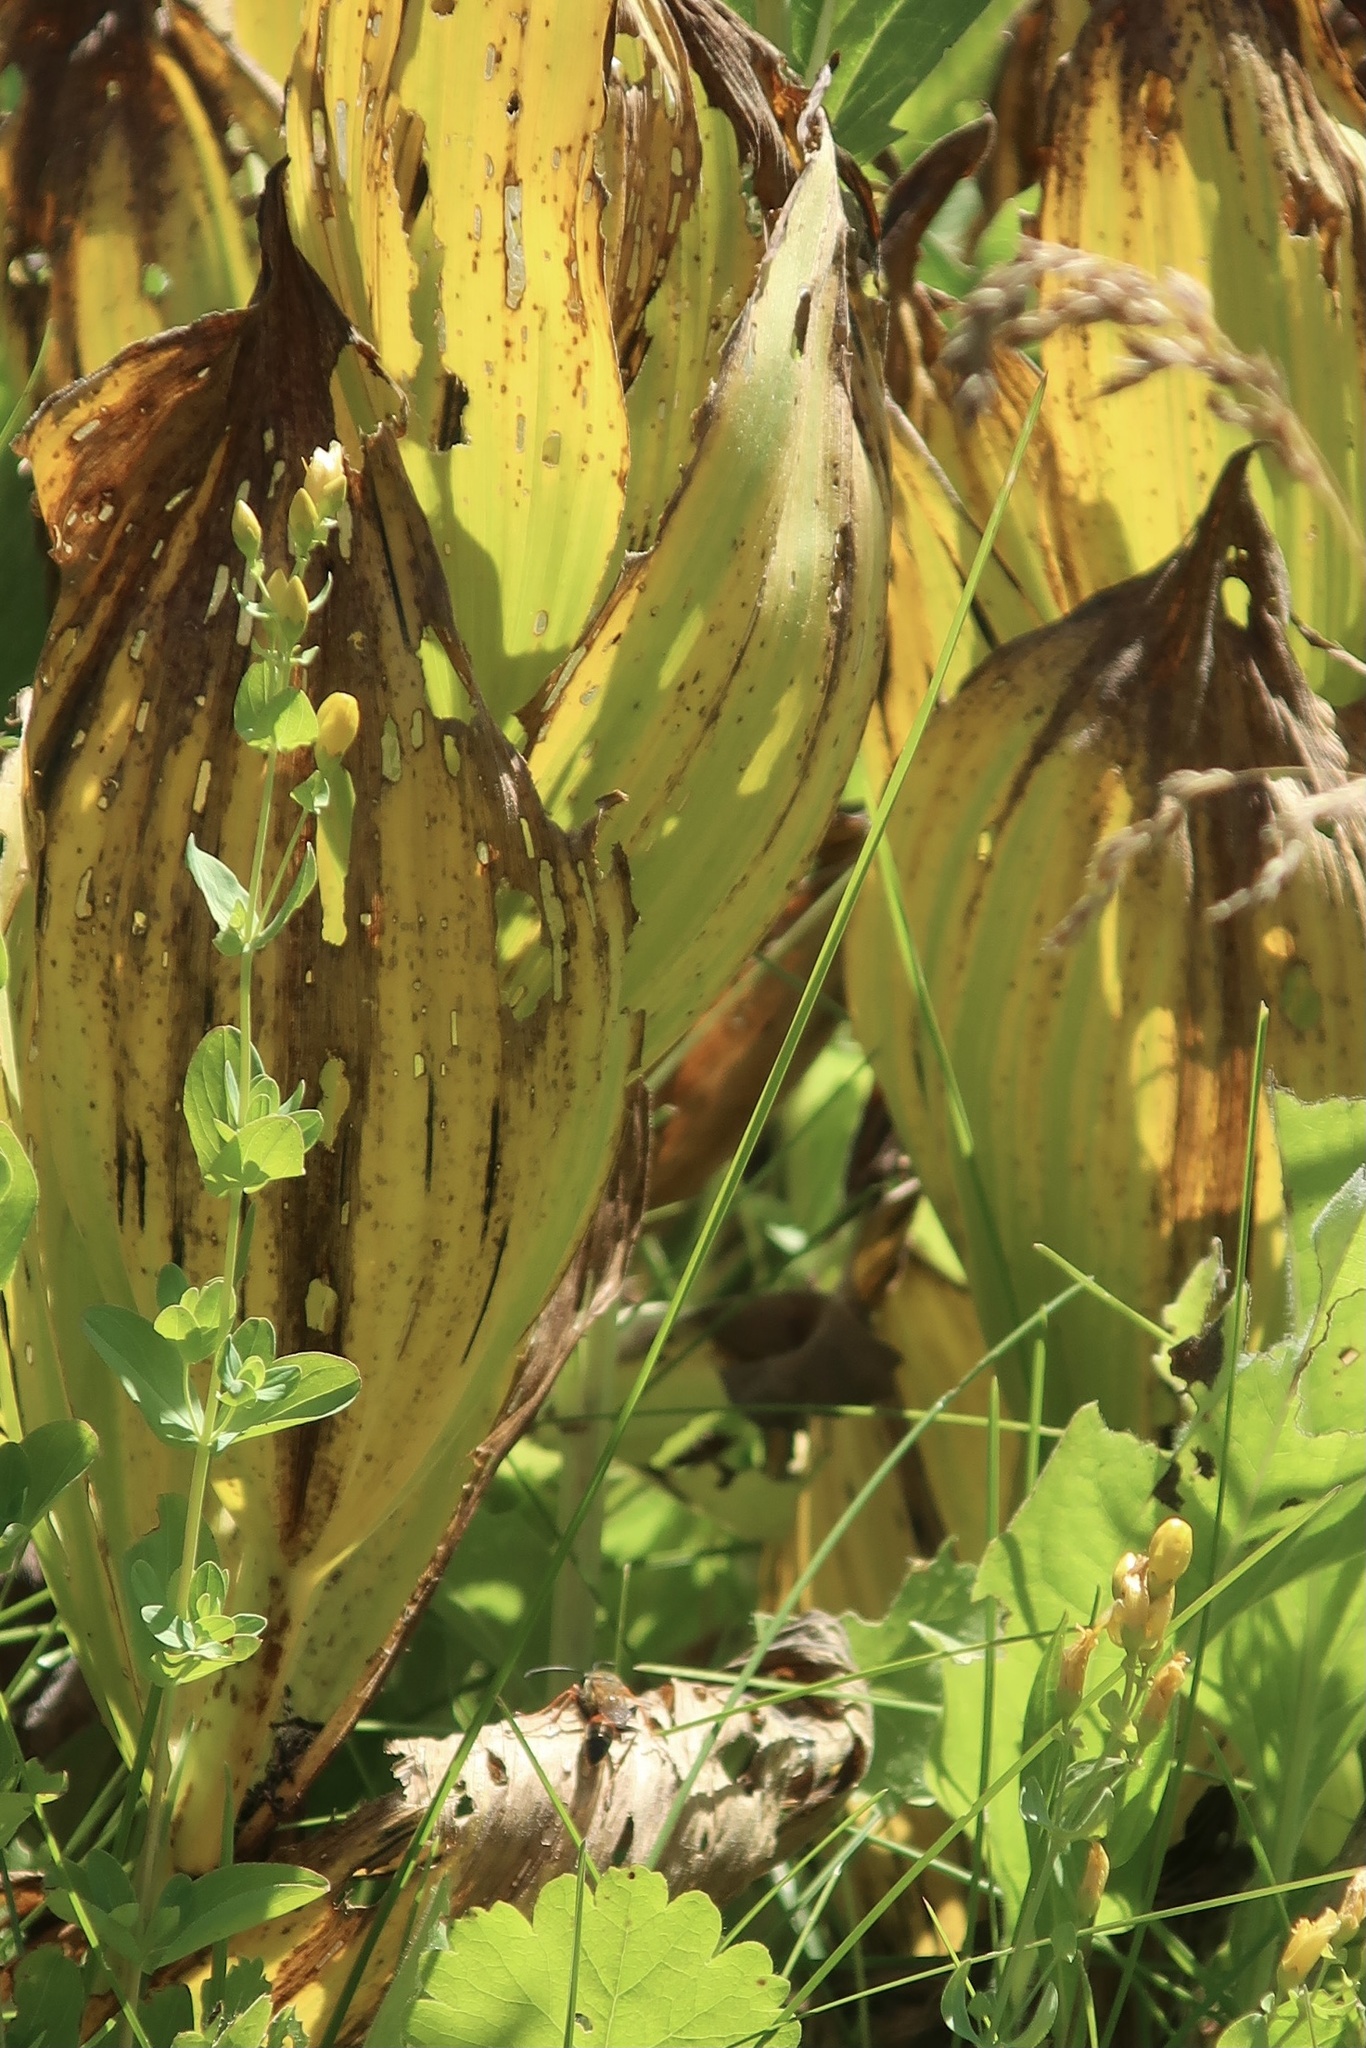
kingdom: Plantae
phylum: Tracheophyta
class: Liliopsida
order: Liliales
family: Melanthiaceae
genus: Veratrum
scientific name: Veratrum californicum
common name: California veratrum
